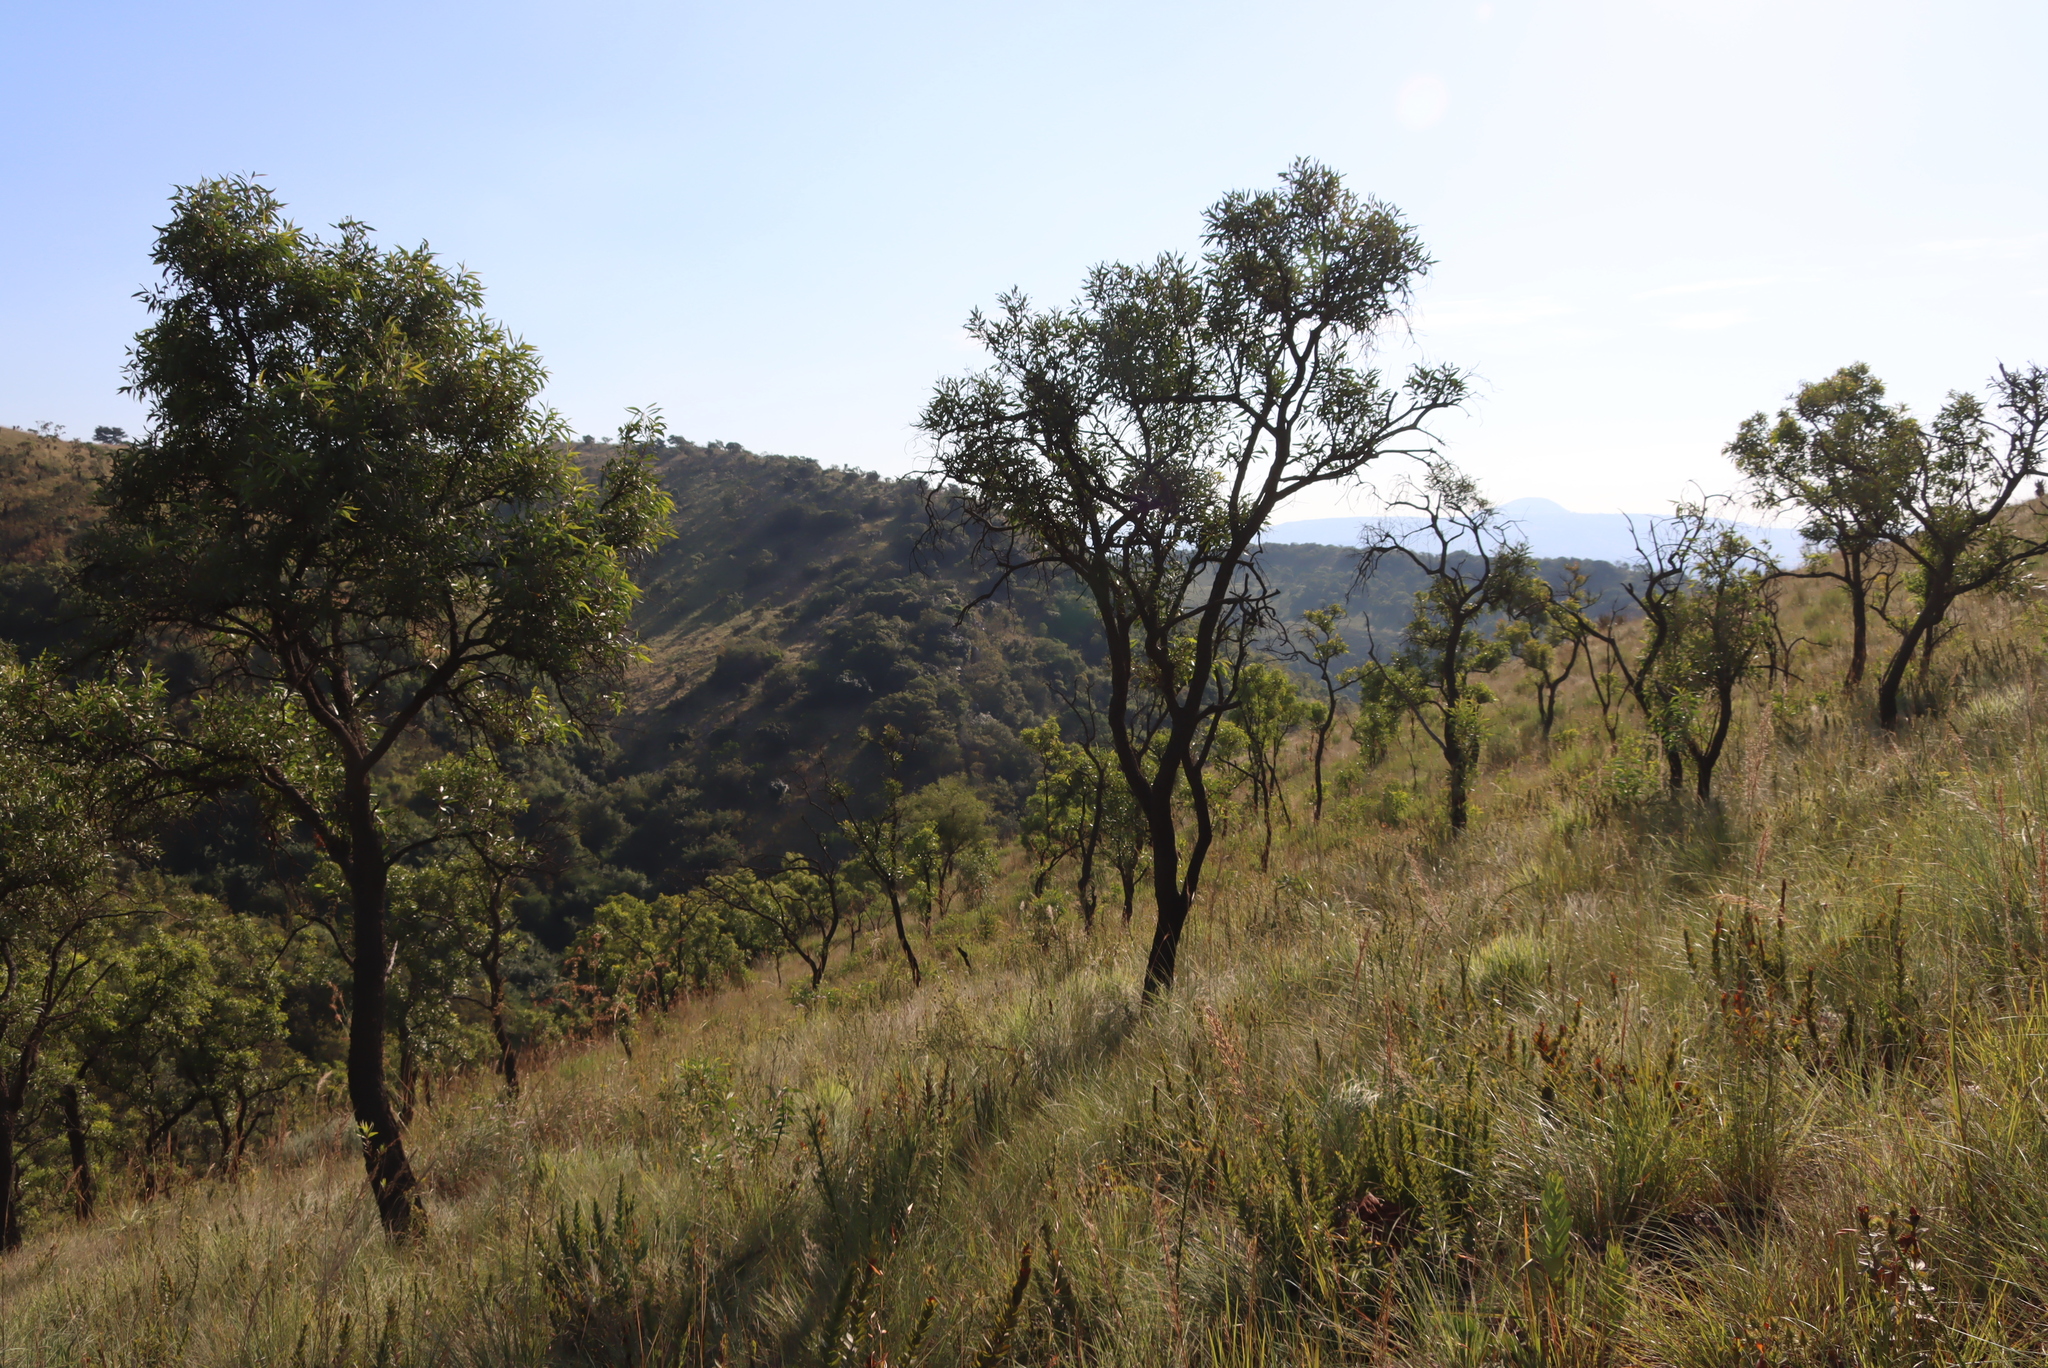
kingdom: Plantae
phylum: Tracheophyta
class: Magnoliopsida
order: Proteales
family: Proteaceae
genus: Faurea
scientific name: Faurea saligna
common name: African bean
